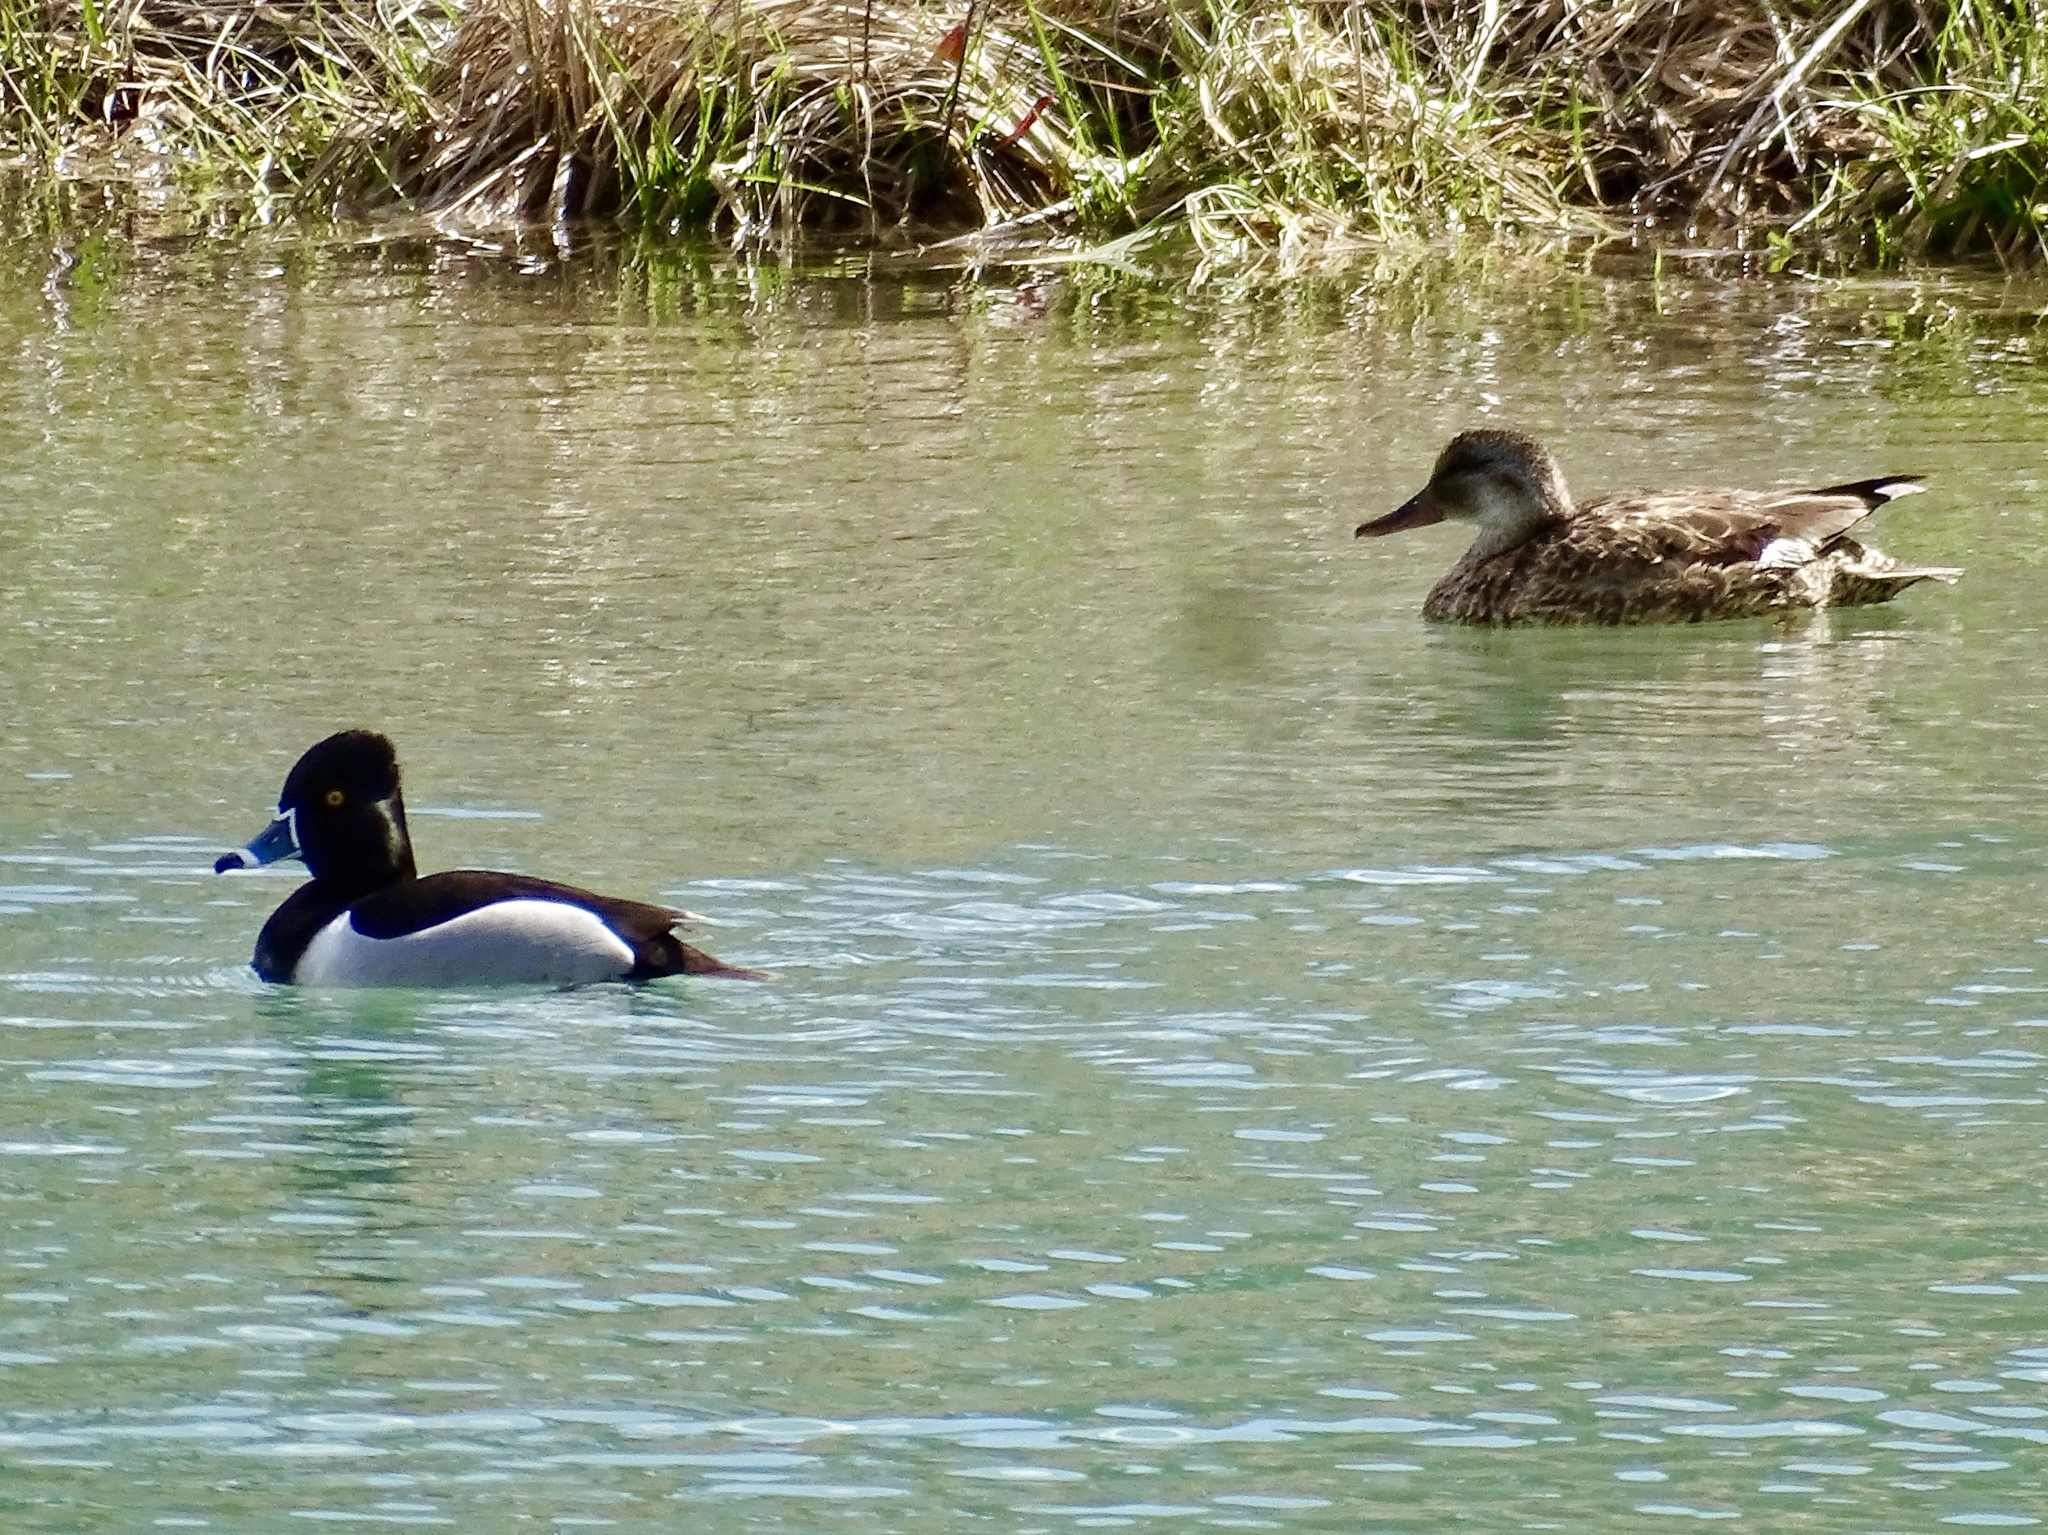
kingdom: Animalia
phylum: Chordata
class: Aves
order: Anseriformes
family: Anatidae
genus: Aythya
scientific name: Aythya collaris
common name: Ring-necked duck
